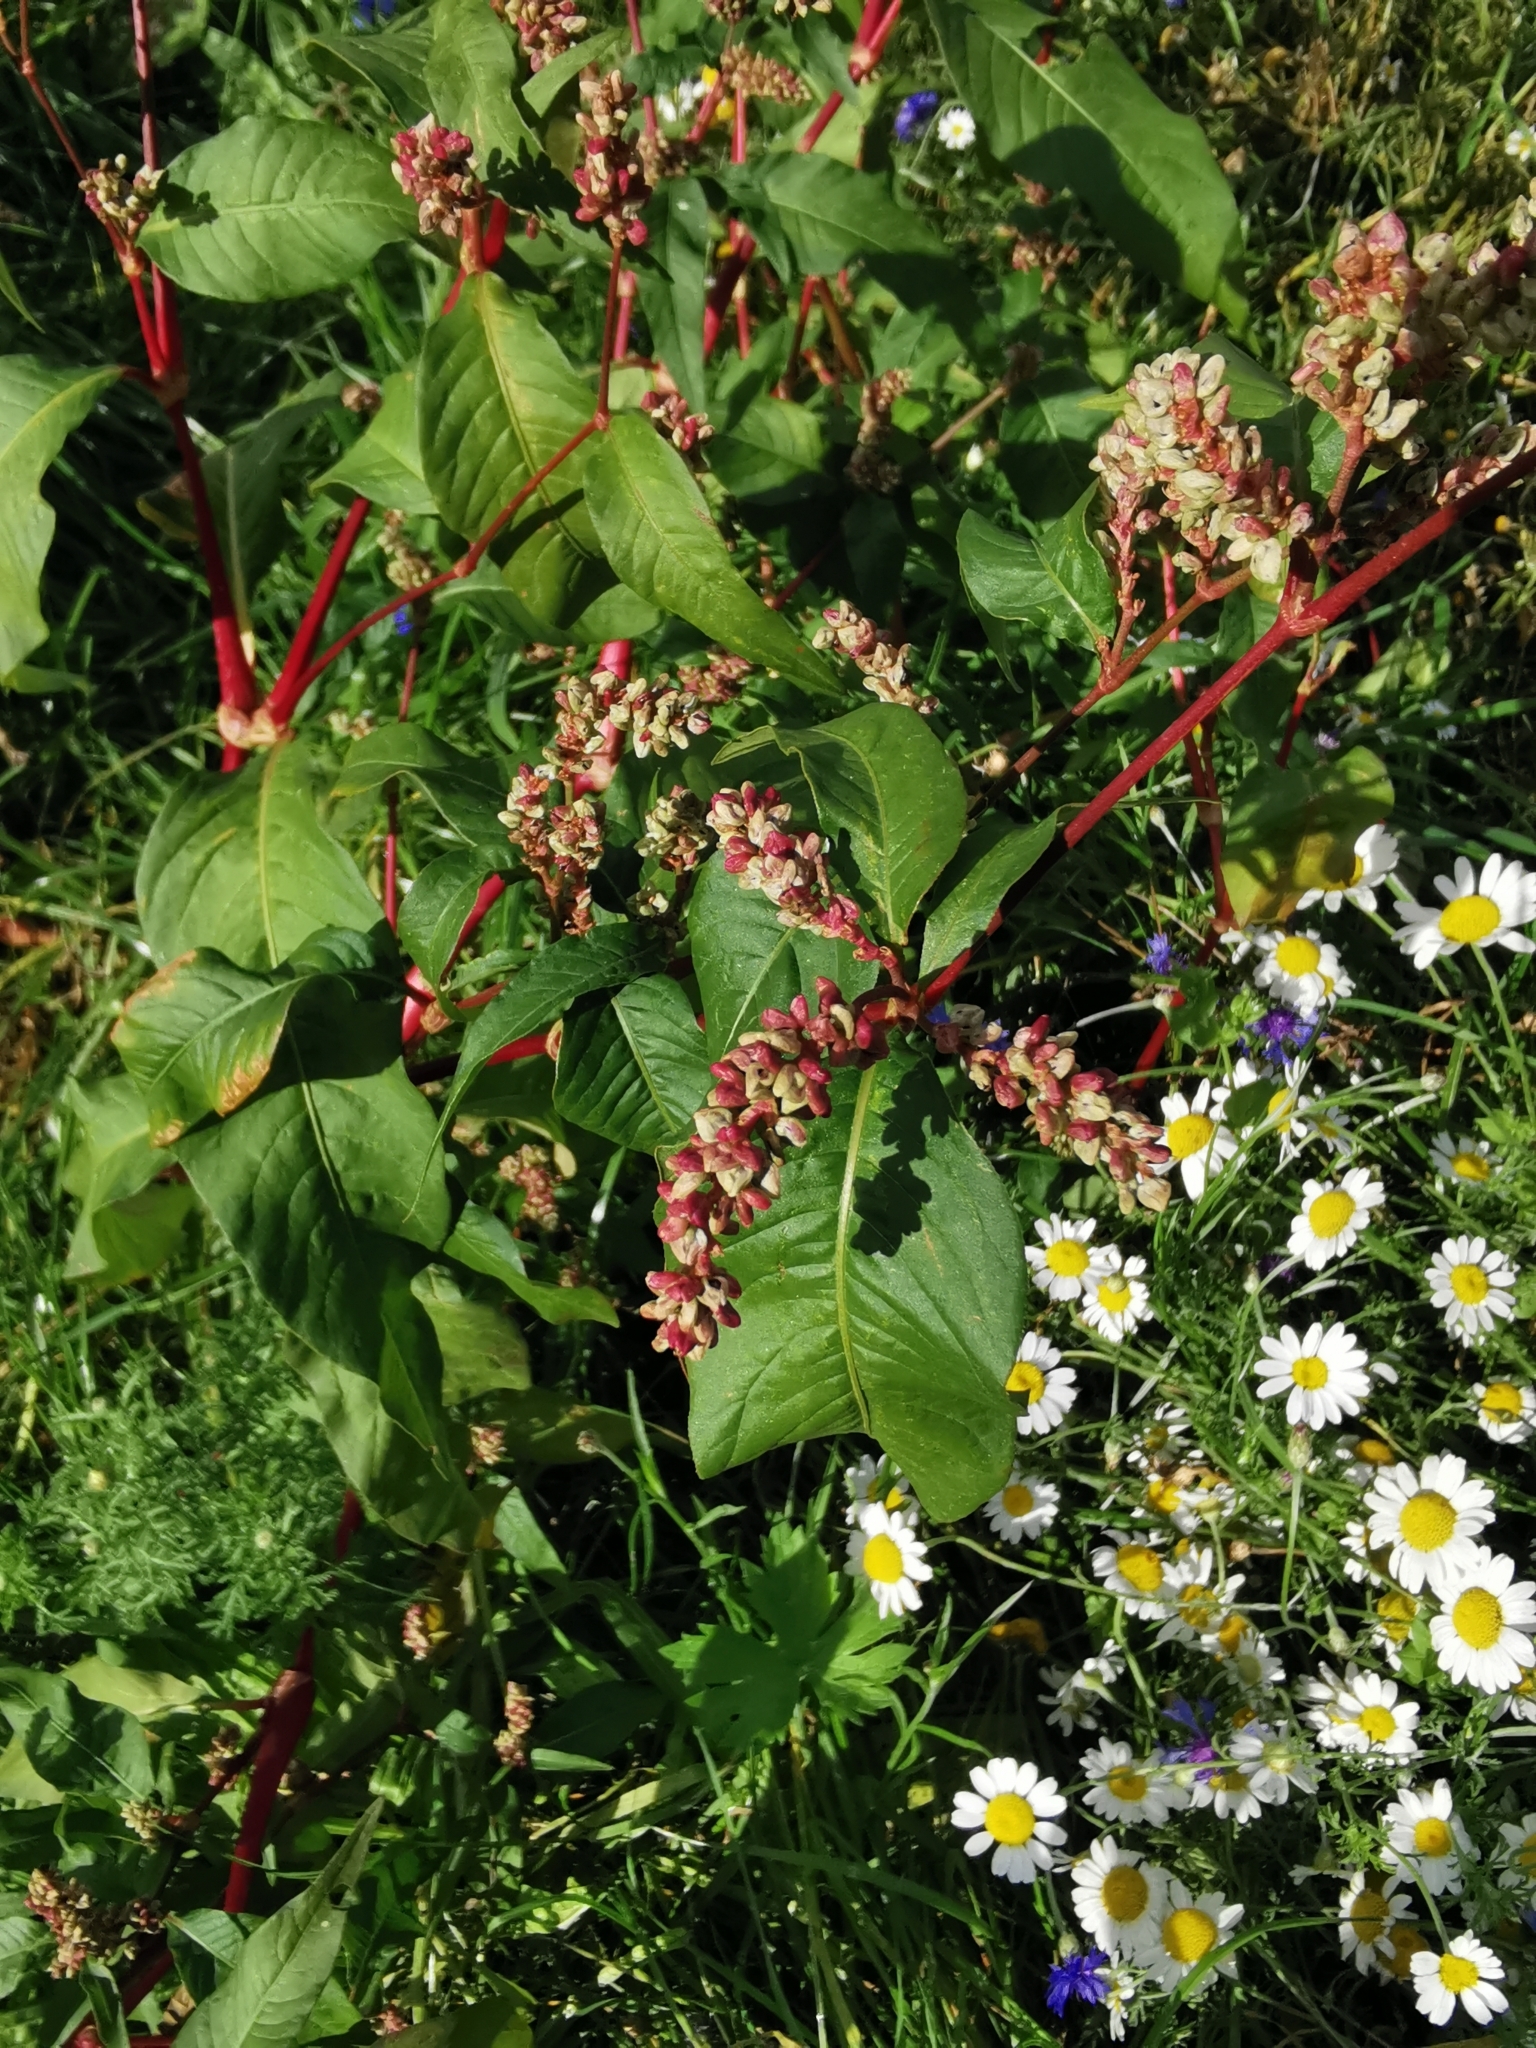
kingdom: Plantae
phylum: Tracheophyta
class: Magnoliopsida
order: Caryophyllales
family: Polygonaceae
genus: Persicaria
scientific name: Persicaria maculosa
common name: Redshank
